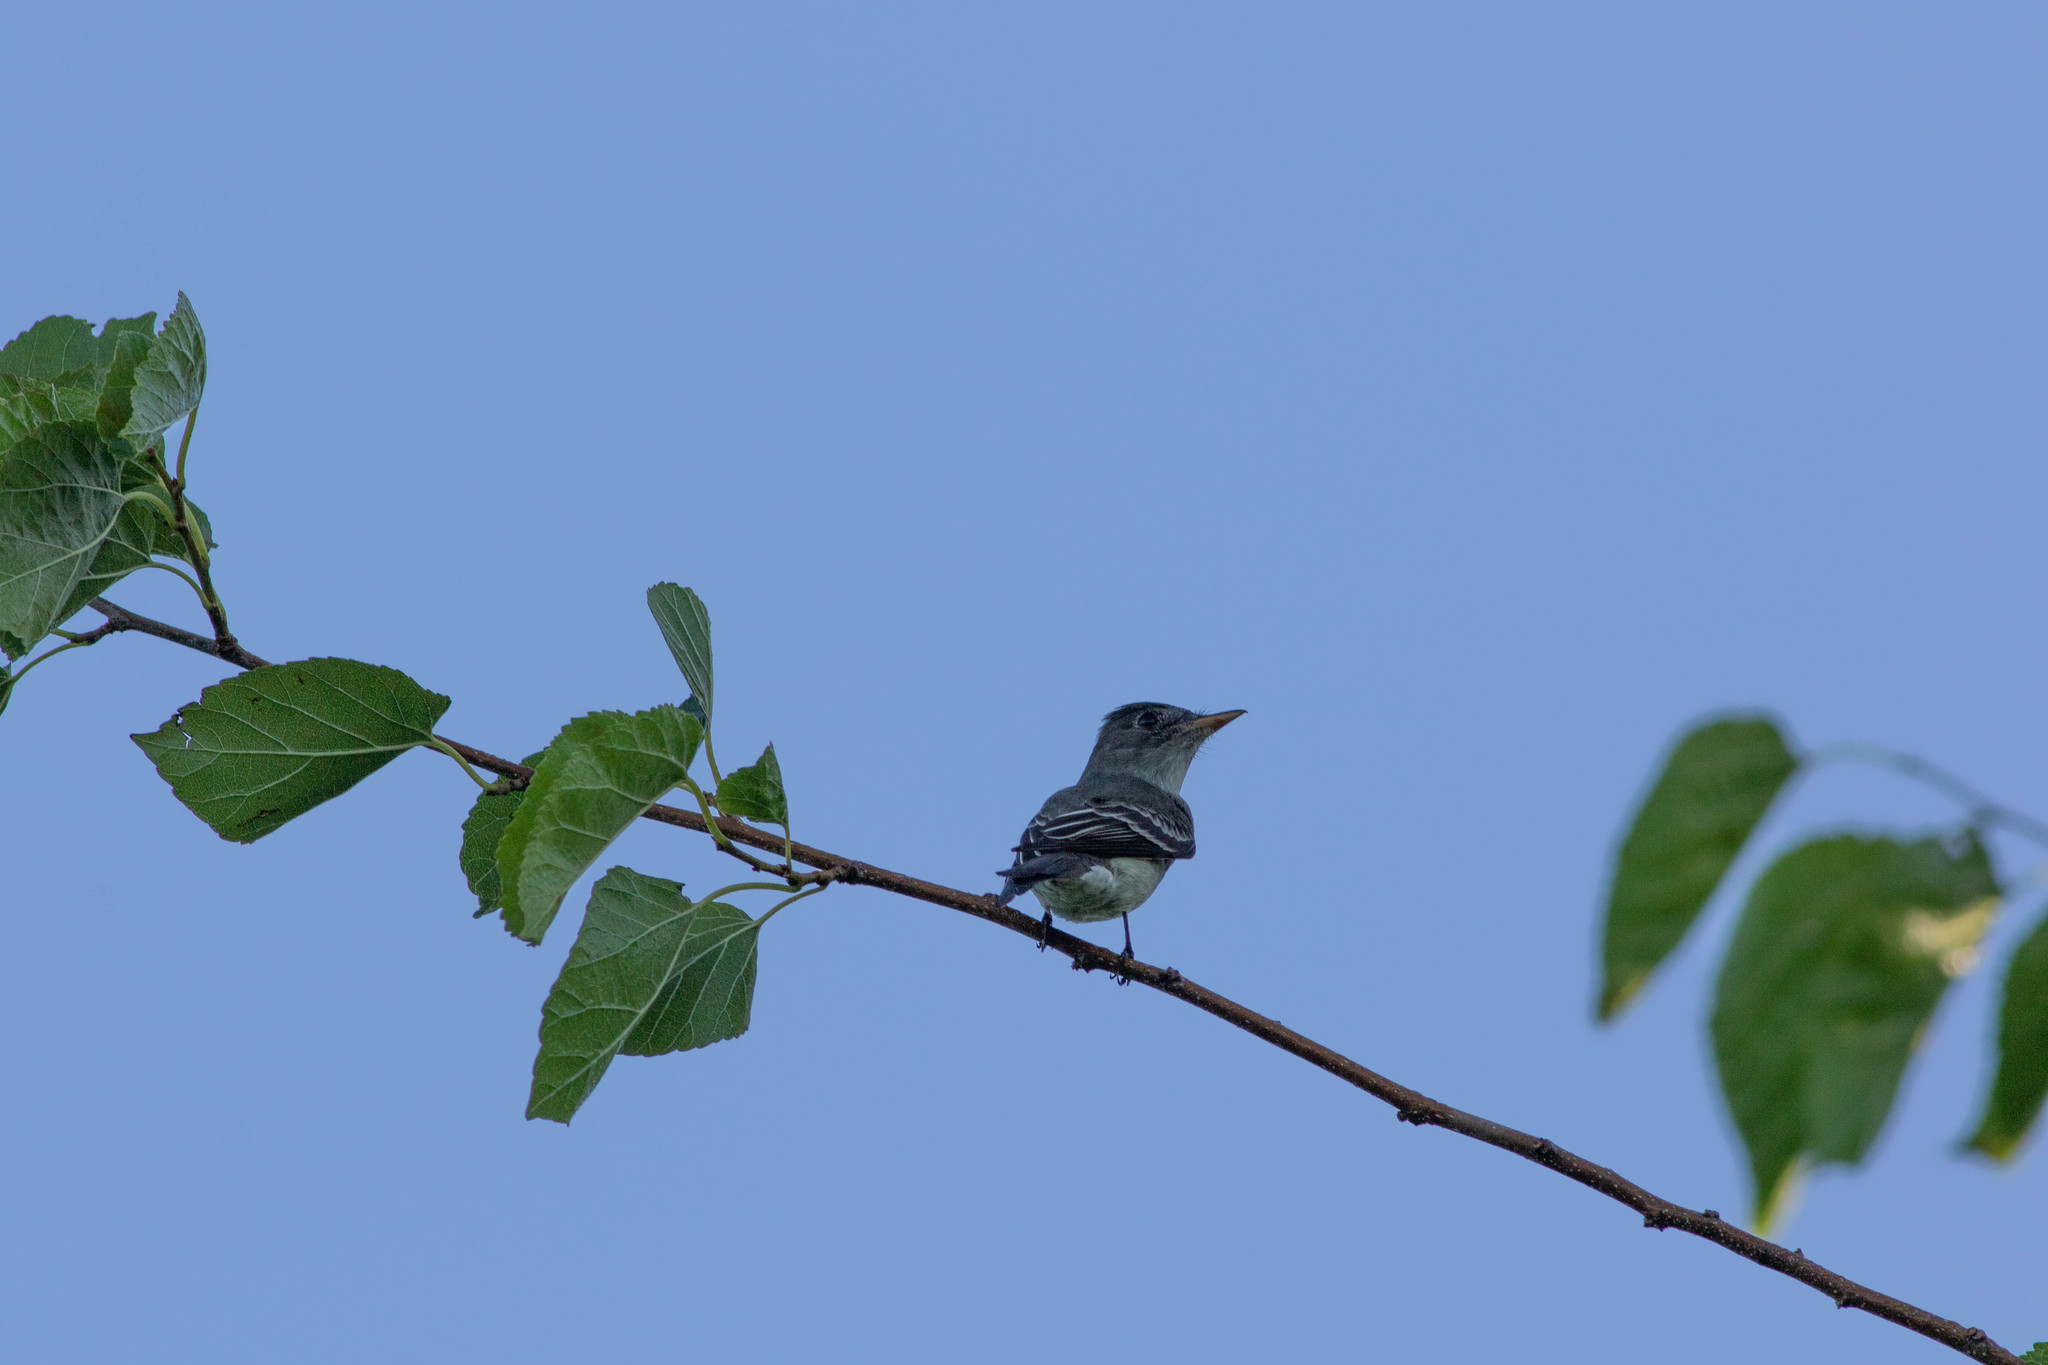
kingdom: Animalia
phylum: Chordata
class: Aves
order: Passeriformes
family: Tyrannidae
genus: Contopus
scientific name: Contopus virens
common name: Eastern wood-pewee
